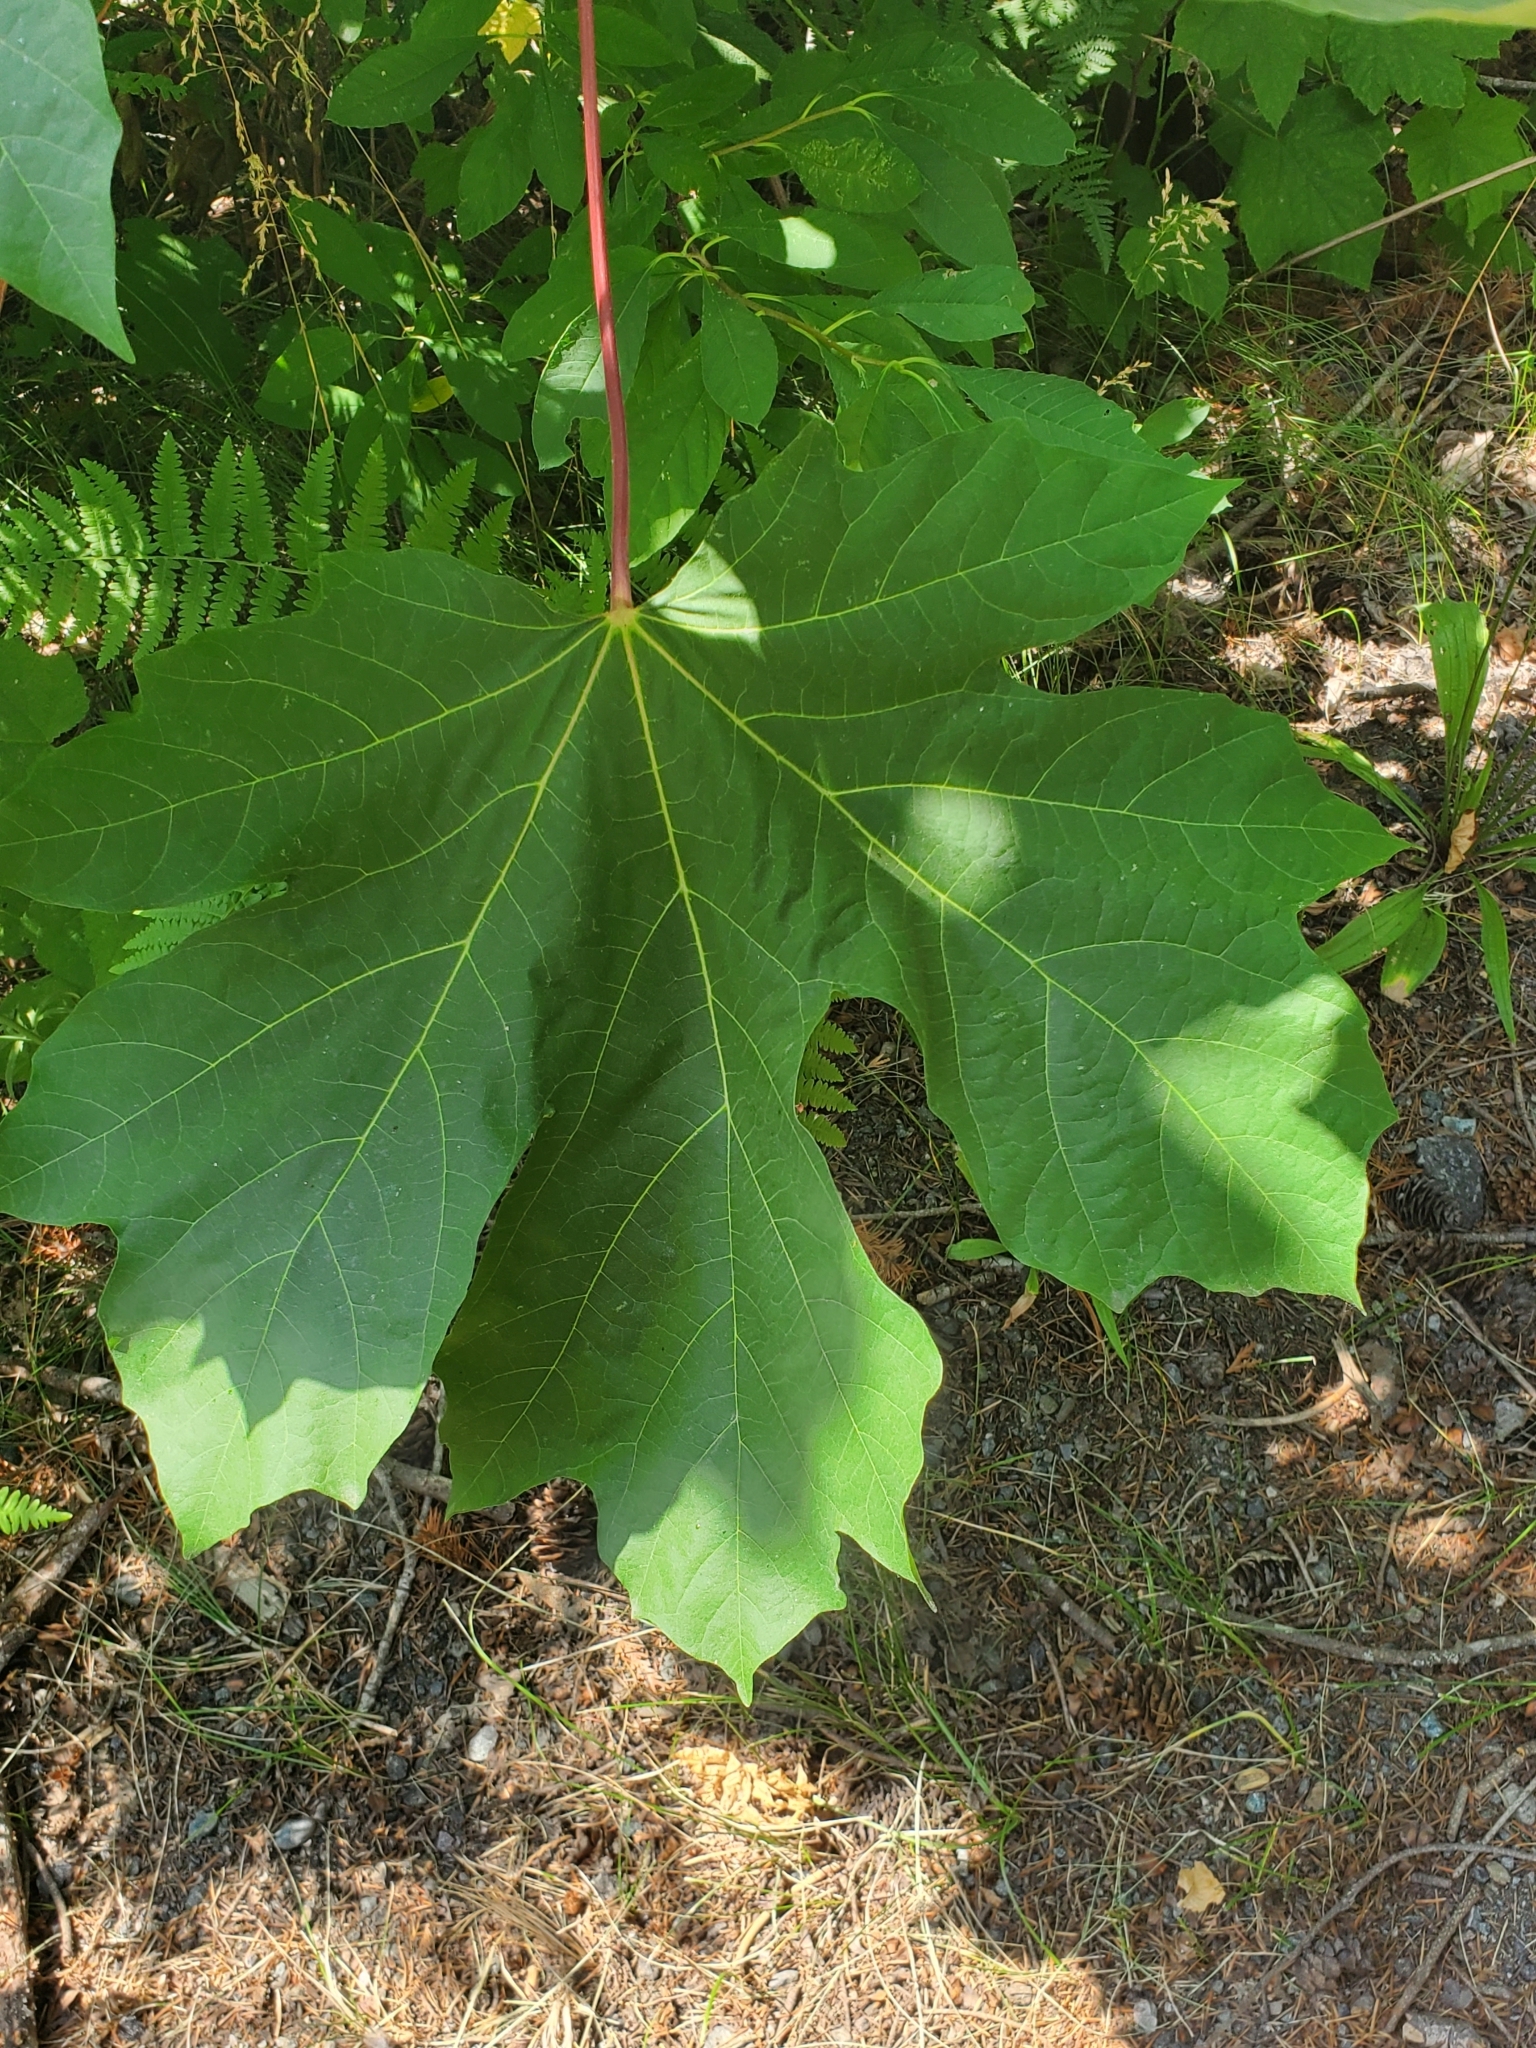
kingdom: Plantae
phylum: Tracheophyta
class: Magnoliopsida
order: Sapindales
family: Sapindaceae
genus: Acer
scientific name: Acer macrophyllum
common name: Oregon maple
